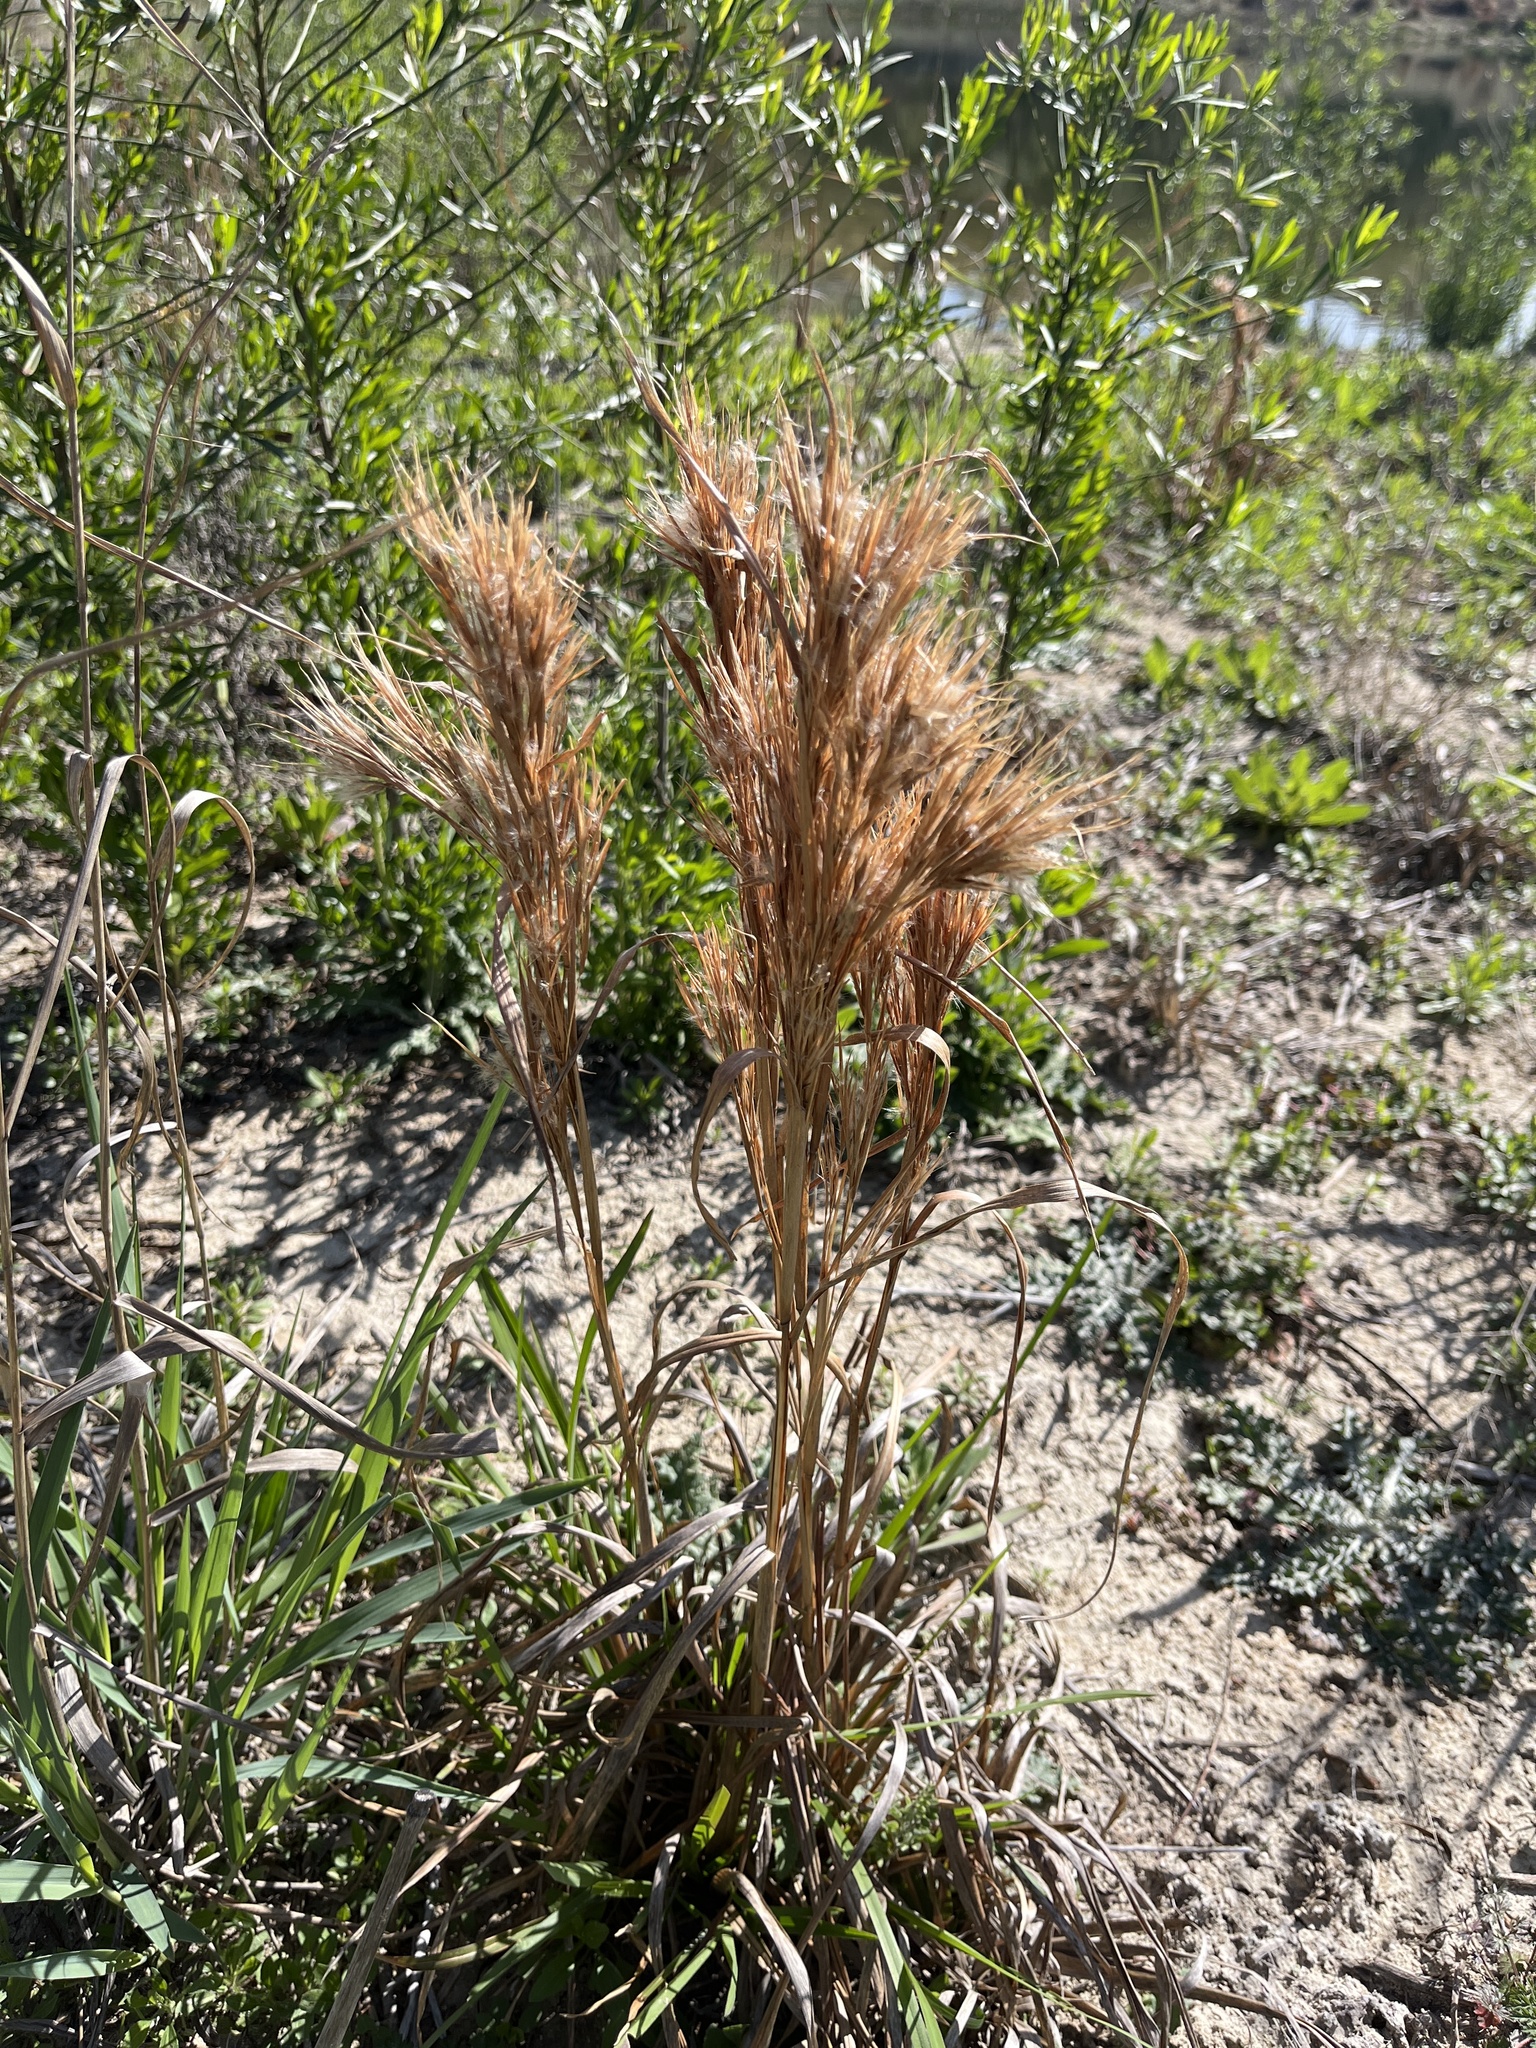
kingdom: Plantae
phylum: Tracheophyta
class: Liliopsida
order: Poales
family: Poaceae
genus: Andropogon
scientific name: Andropogon tenuispatheus
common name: Bushy bluestem
